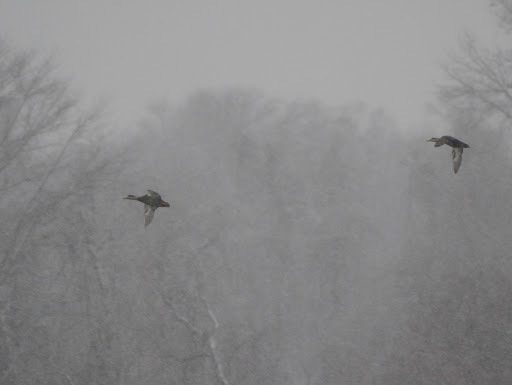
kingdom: Animalia
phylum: Chordata
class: Aves
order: Anseriformes
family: Anatidae
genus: Anas
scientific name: Anas rubripes
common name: American black duck
